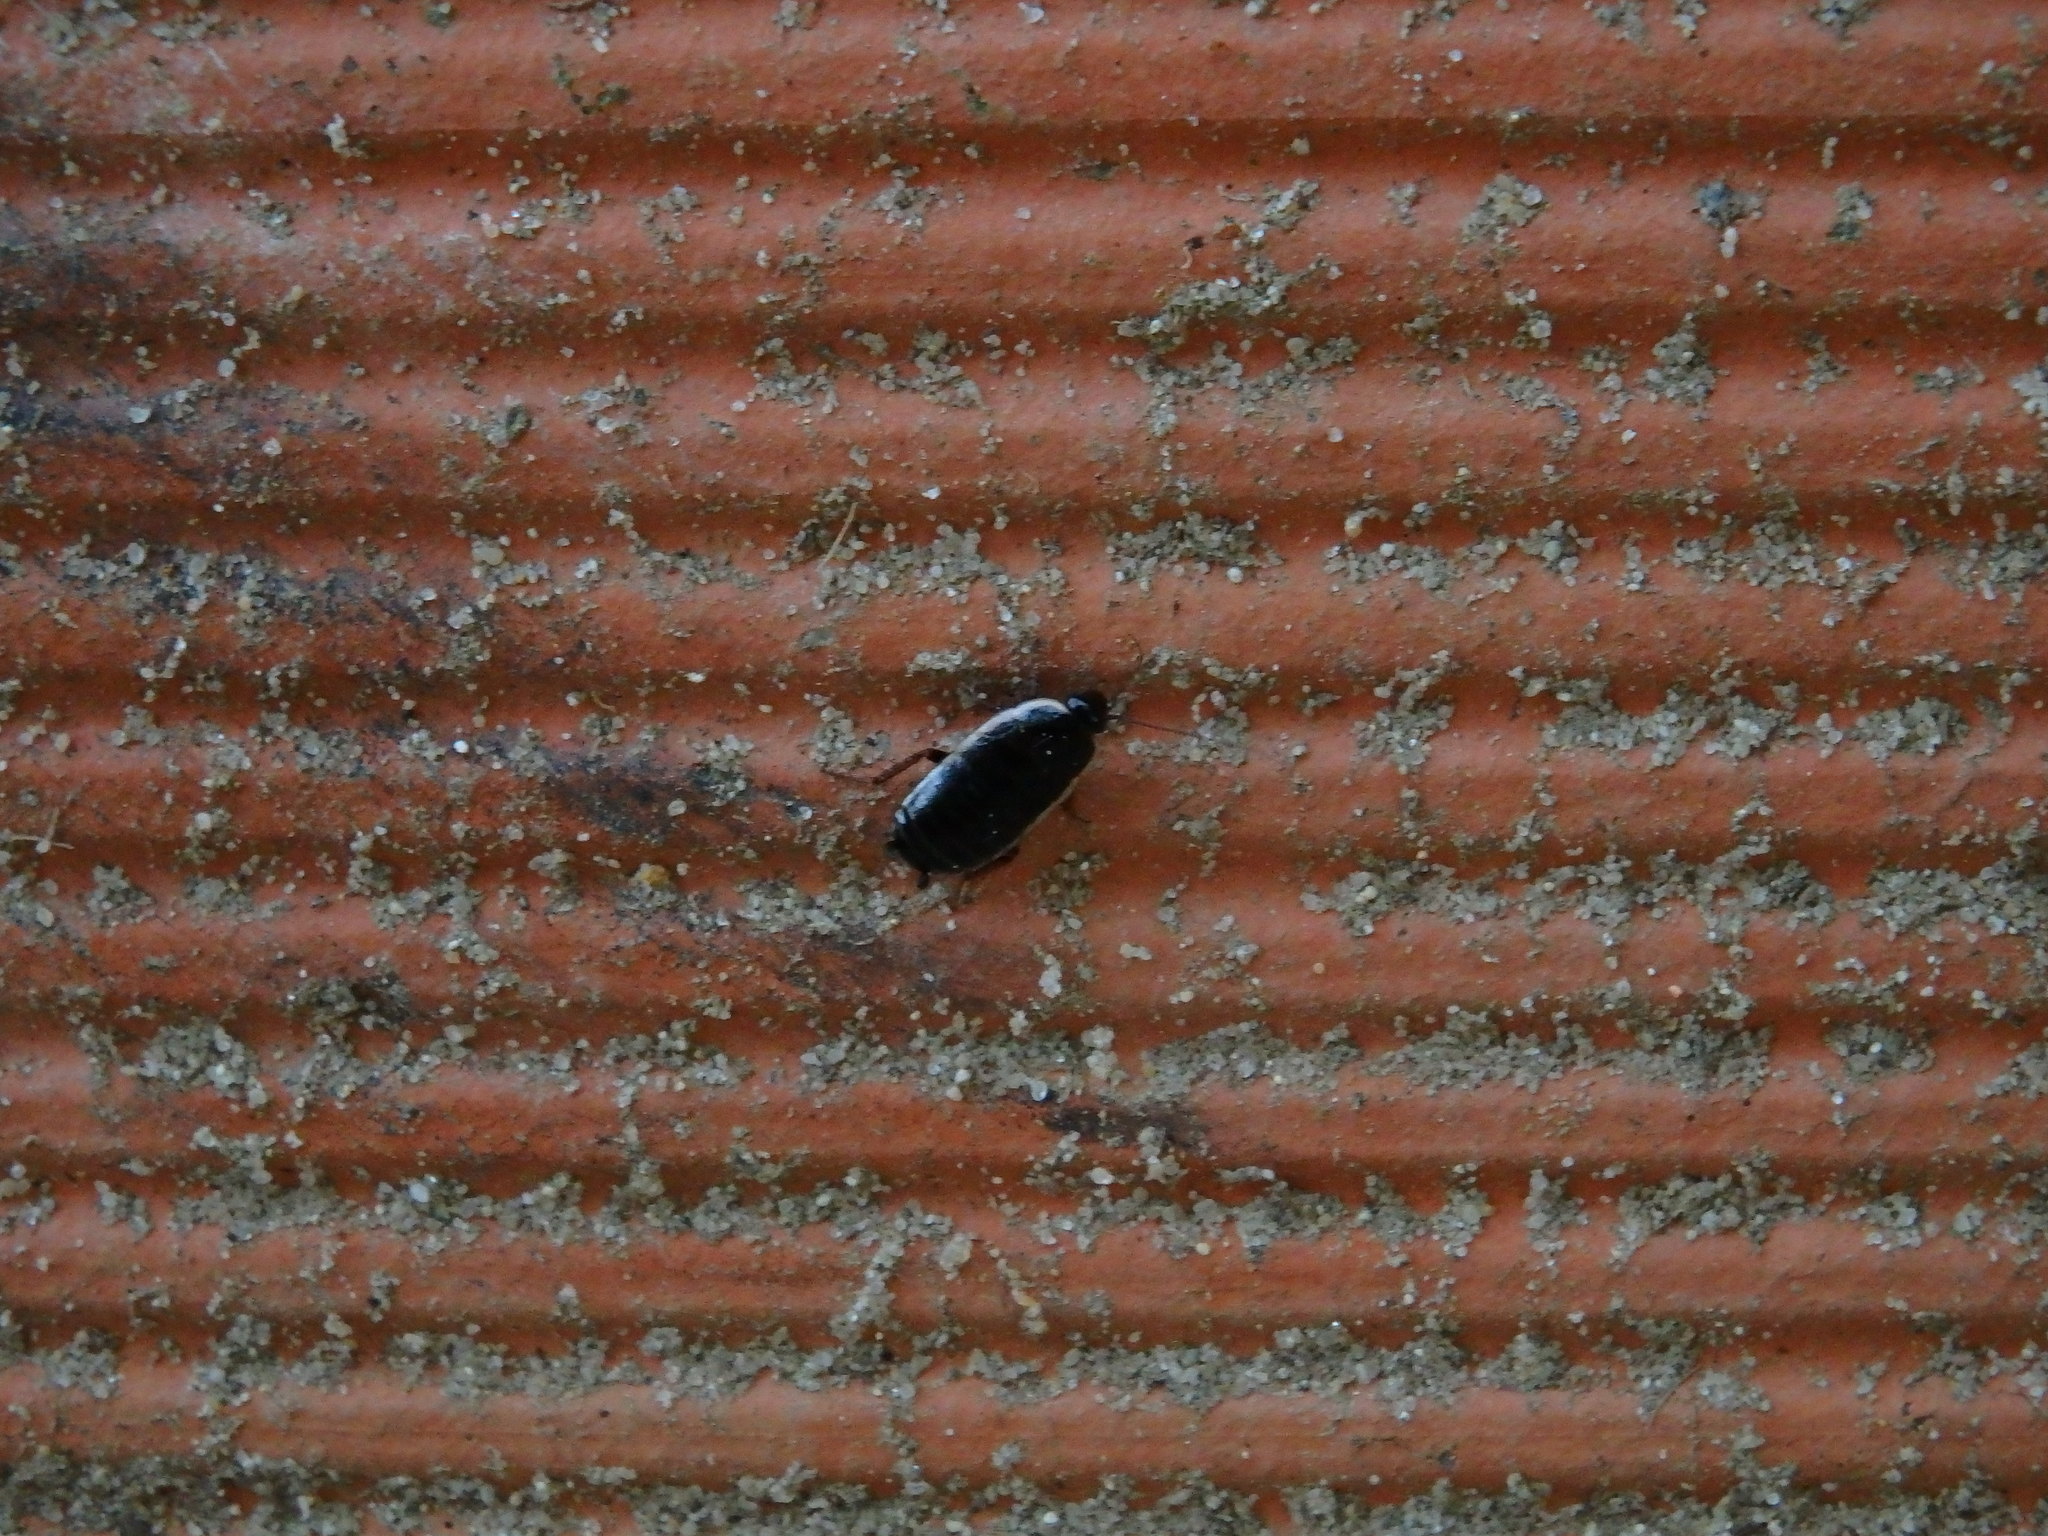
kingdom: Animalia
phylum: Arthropoda
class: Insecta
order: Blattodea
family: Ectobiidae
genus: Loboptera
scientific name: Loboptera decipiens
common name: Lobe-winged cockroach
